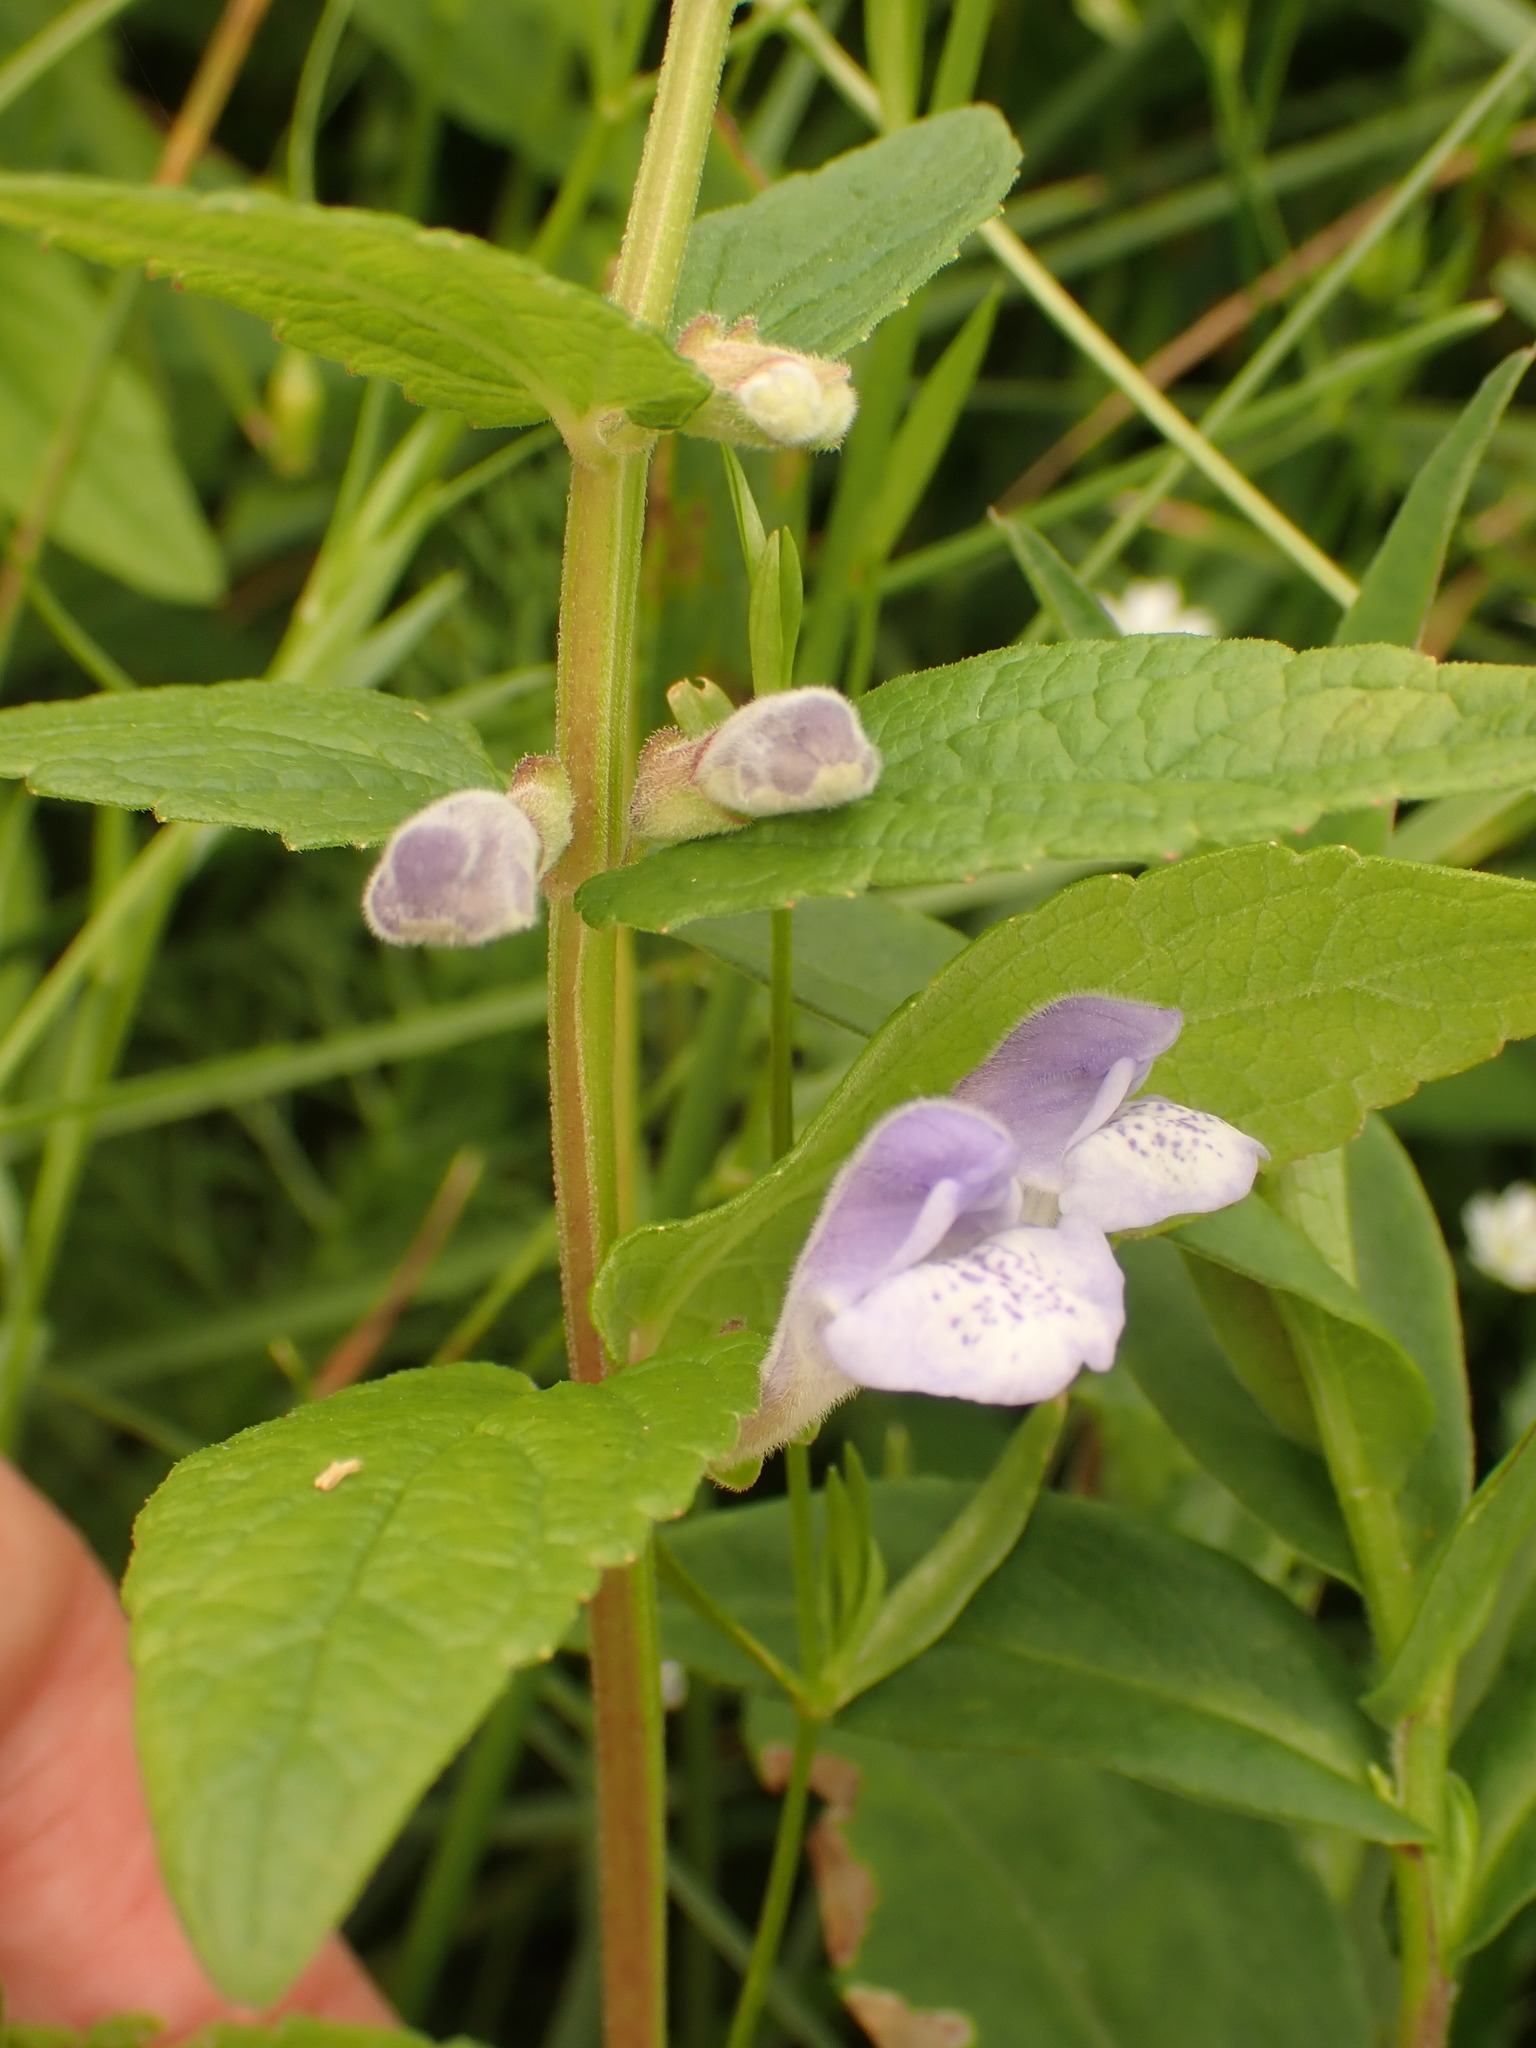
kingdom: Plantae
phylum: Tracheophyta
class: Magnoliopsida
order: Lamiales
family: Lamiaceae
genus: Scutellaria
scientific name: Scutellaria galericulata
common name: Skullcap
